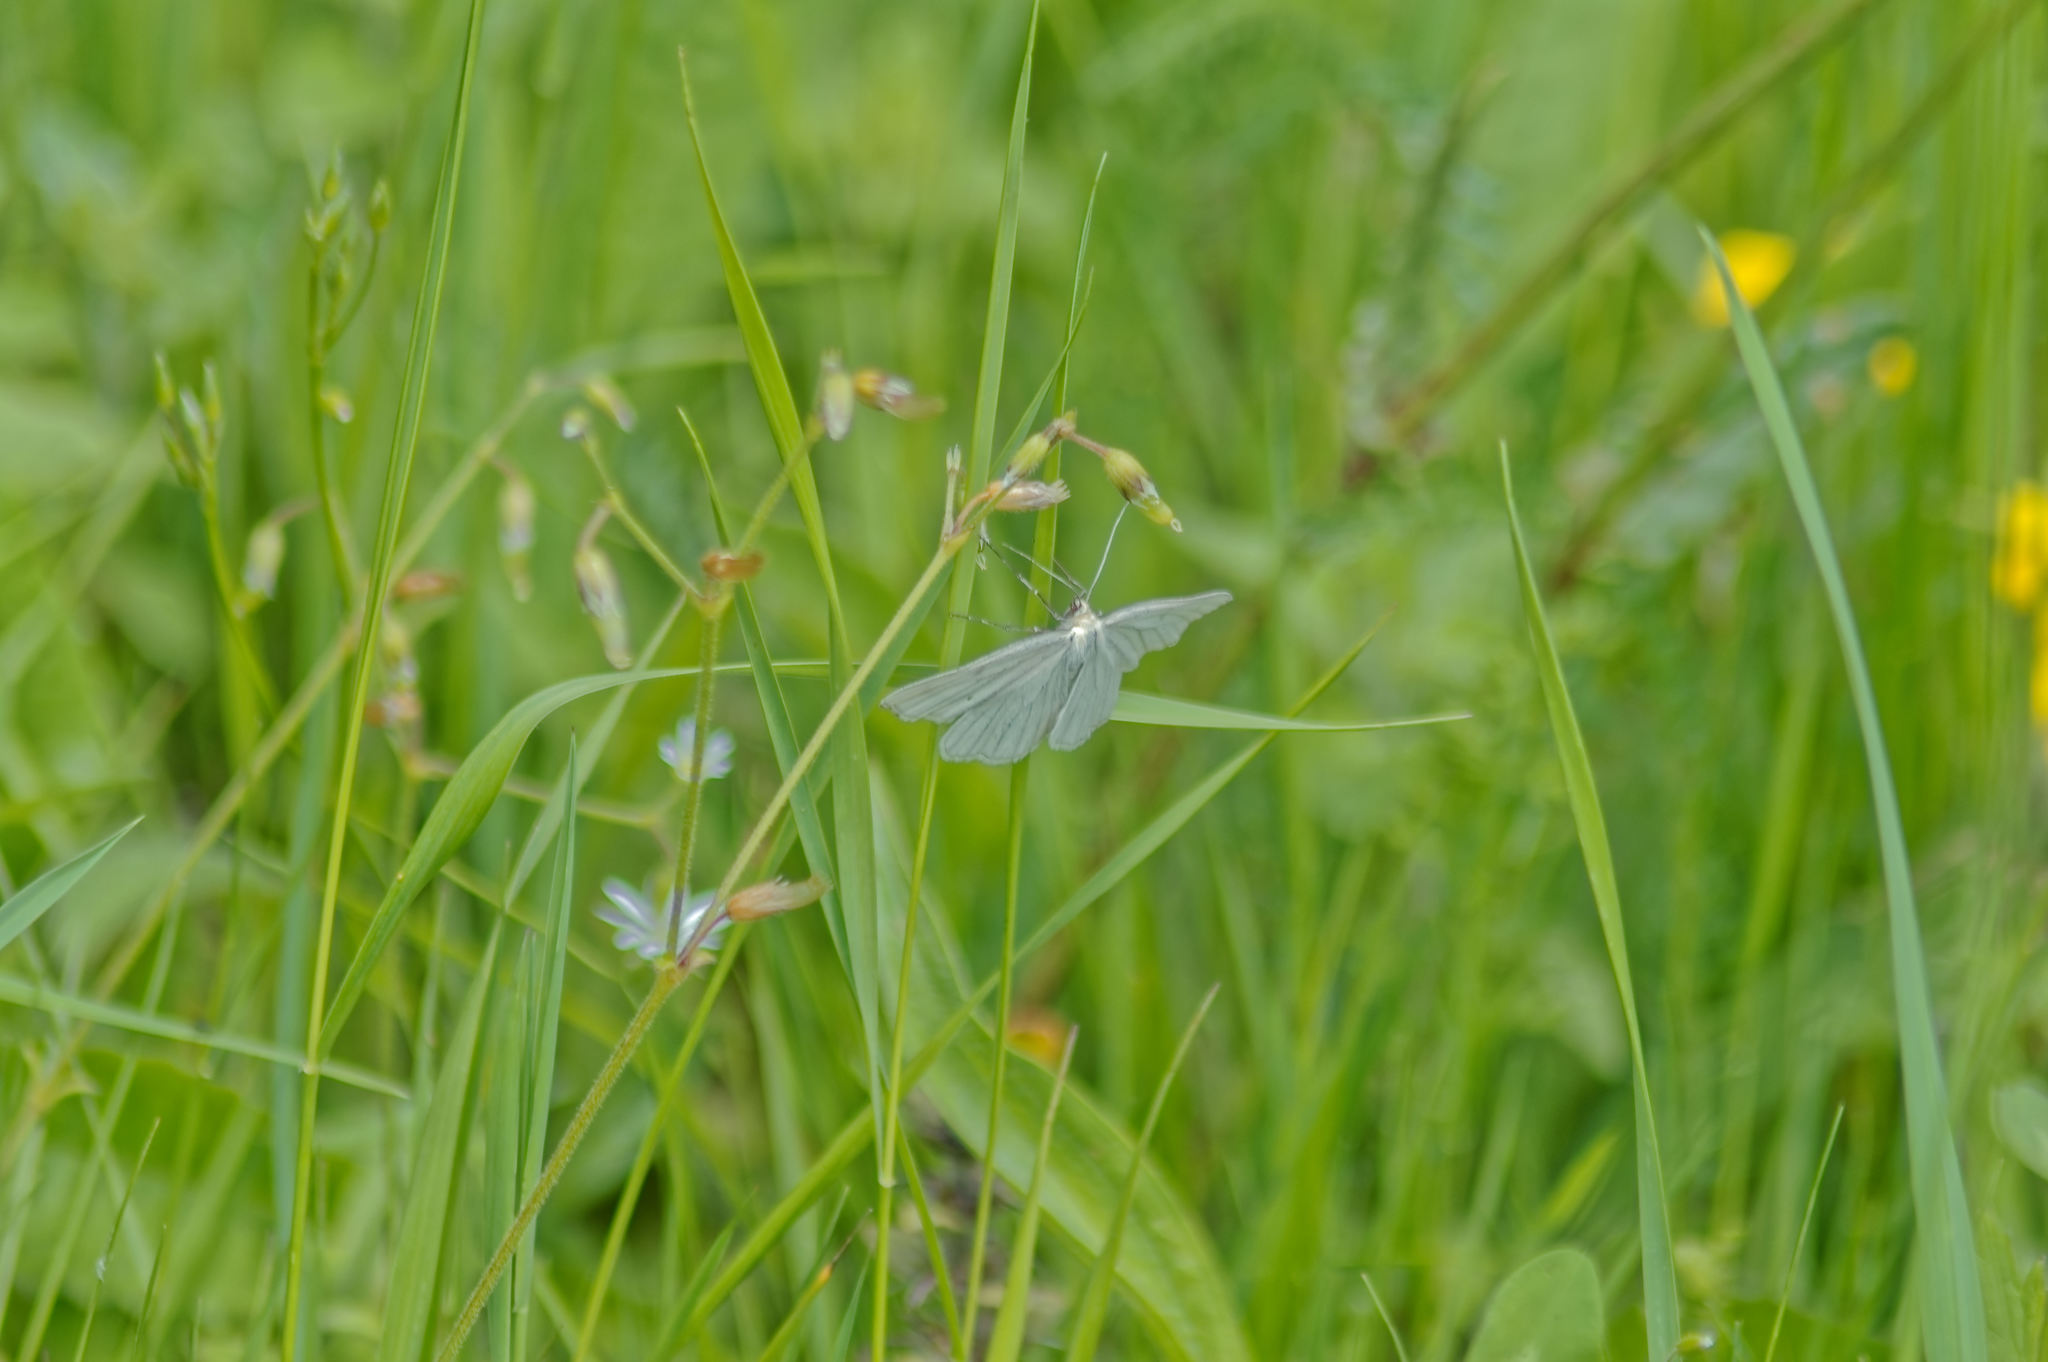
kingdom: Animalia
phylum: Arthropoda
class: Insecta
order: Lepidoptera
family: Geometridae
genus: Siona
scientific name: Siona lineata
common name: Black-veined moth
